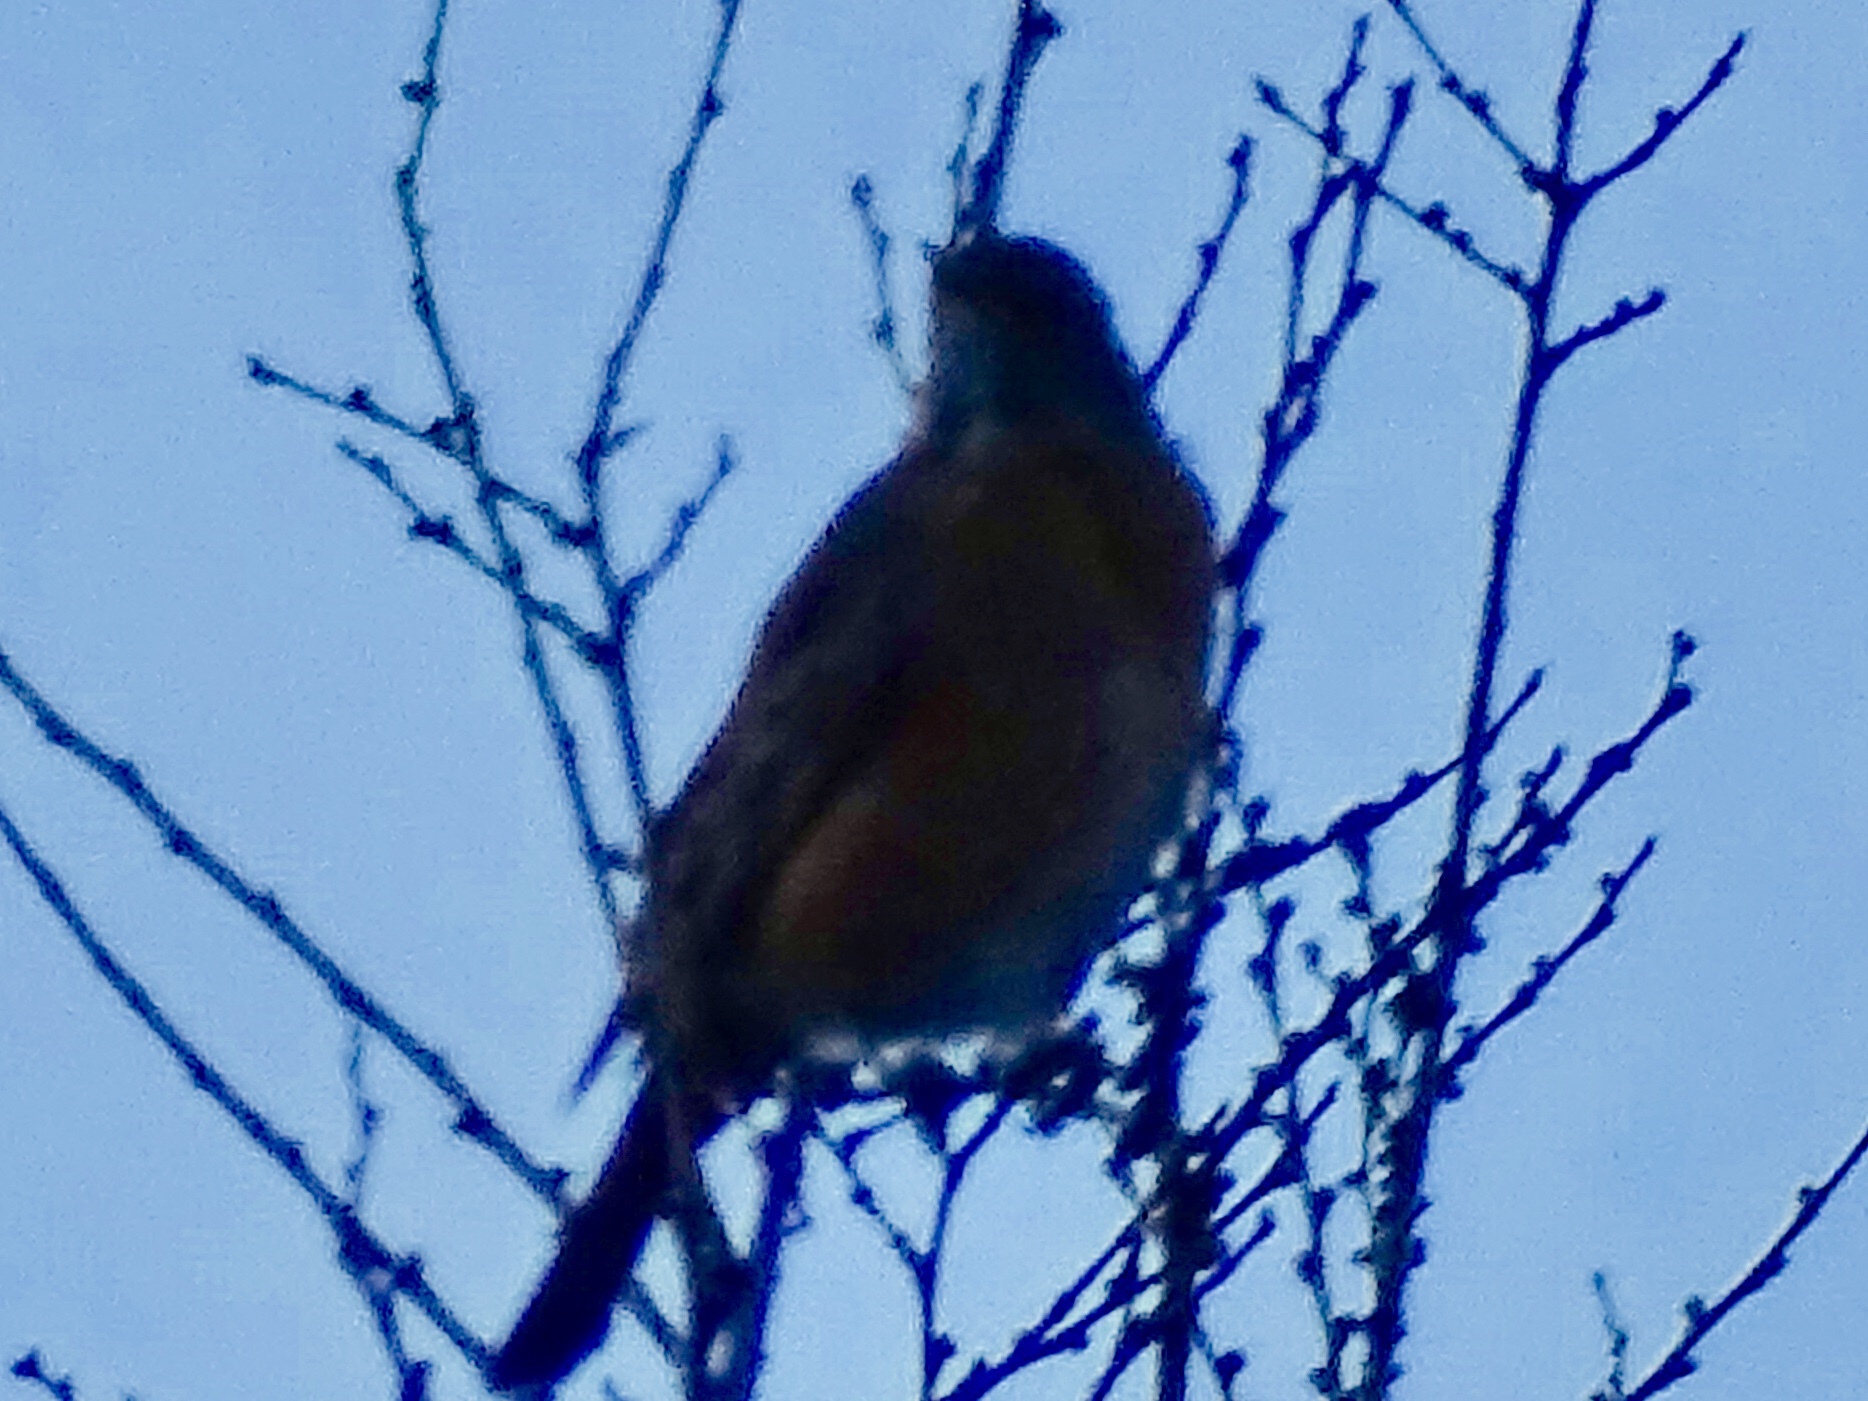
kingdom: Animalia
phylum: Chordata
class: Aves
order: Passeriformes
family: Turdidae
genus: Turdus
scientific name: Turdus migratorius
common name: American robin
